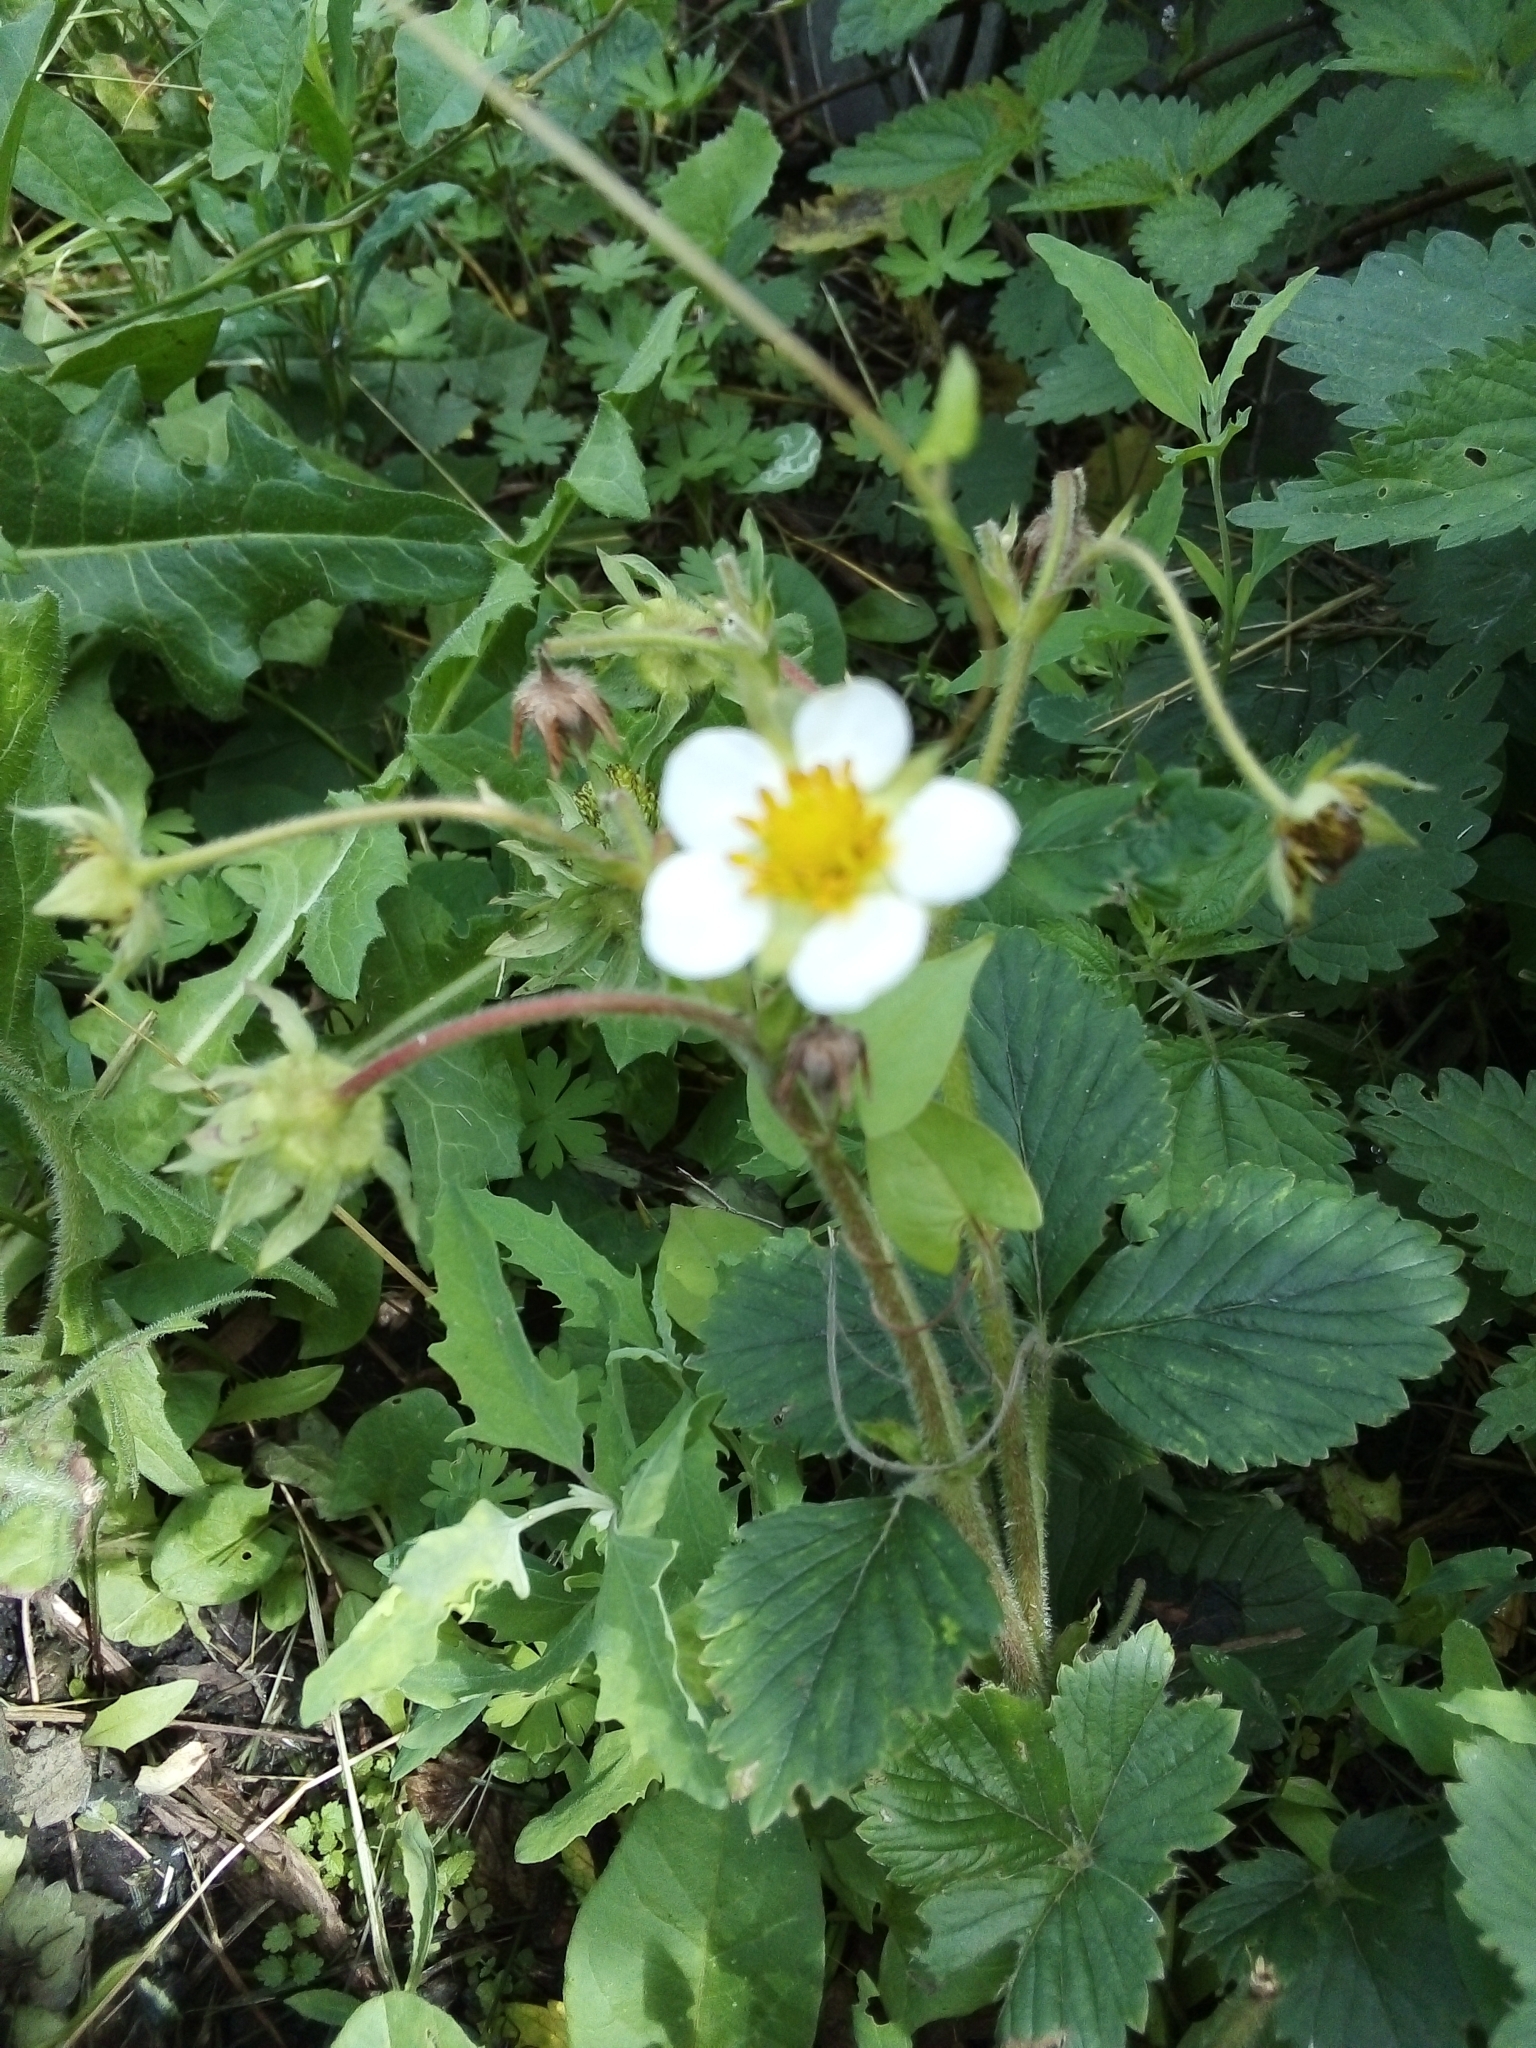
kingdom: Plantae
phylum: Tracheophyta
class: Magnoliopsida
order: Rosales
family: Rosaceae
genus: Fragaria
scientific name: Fragaria ananassa
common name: Garden strawberry
